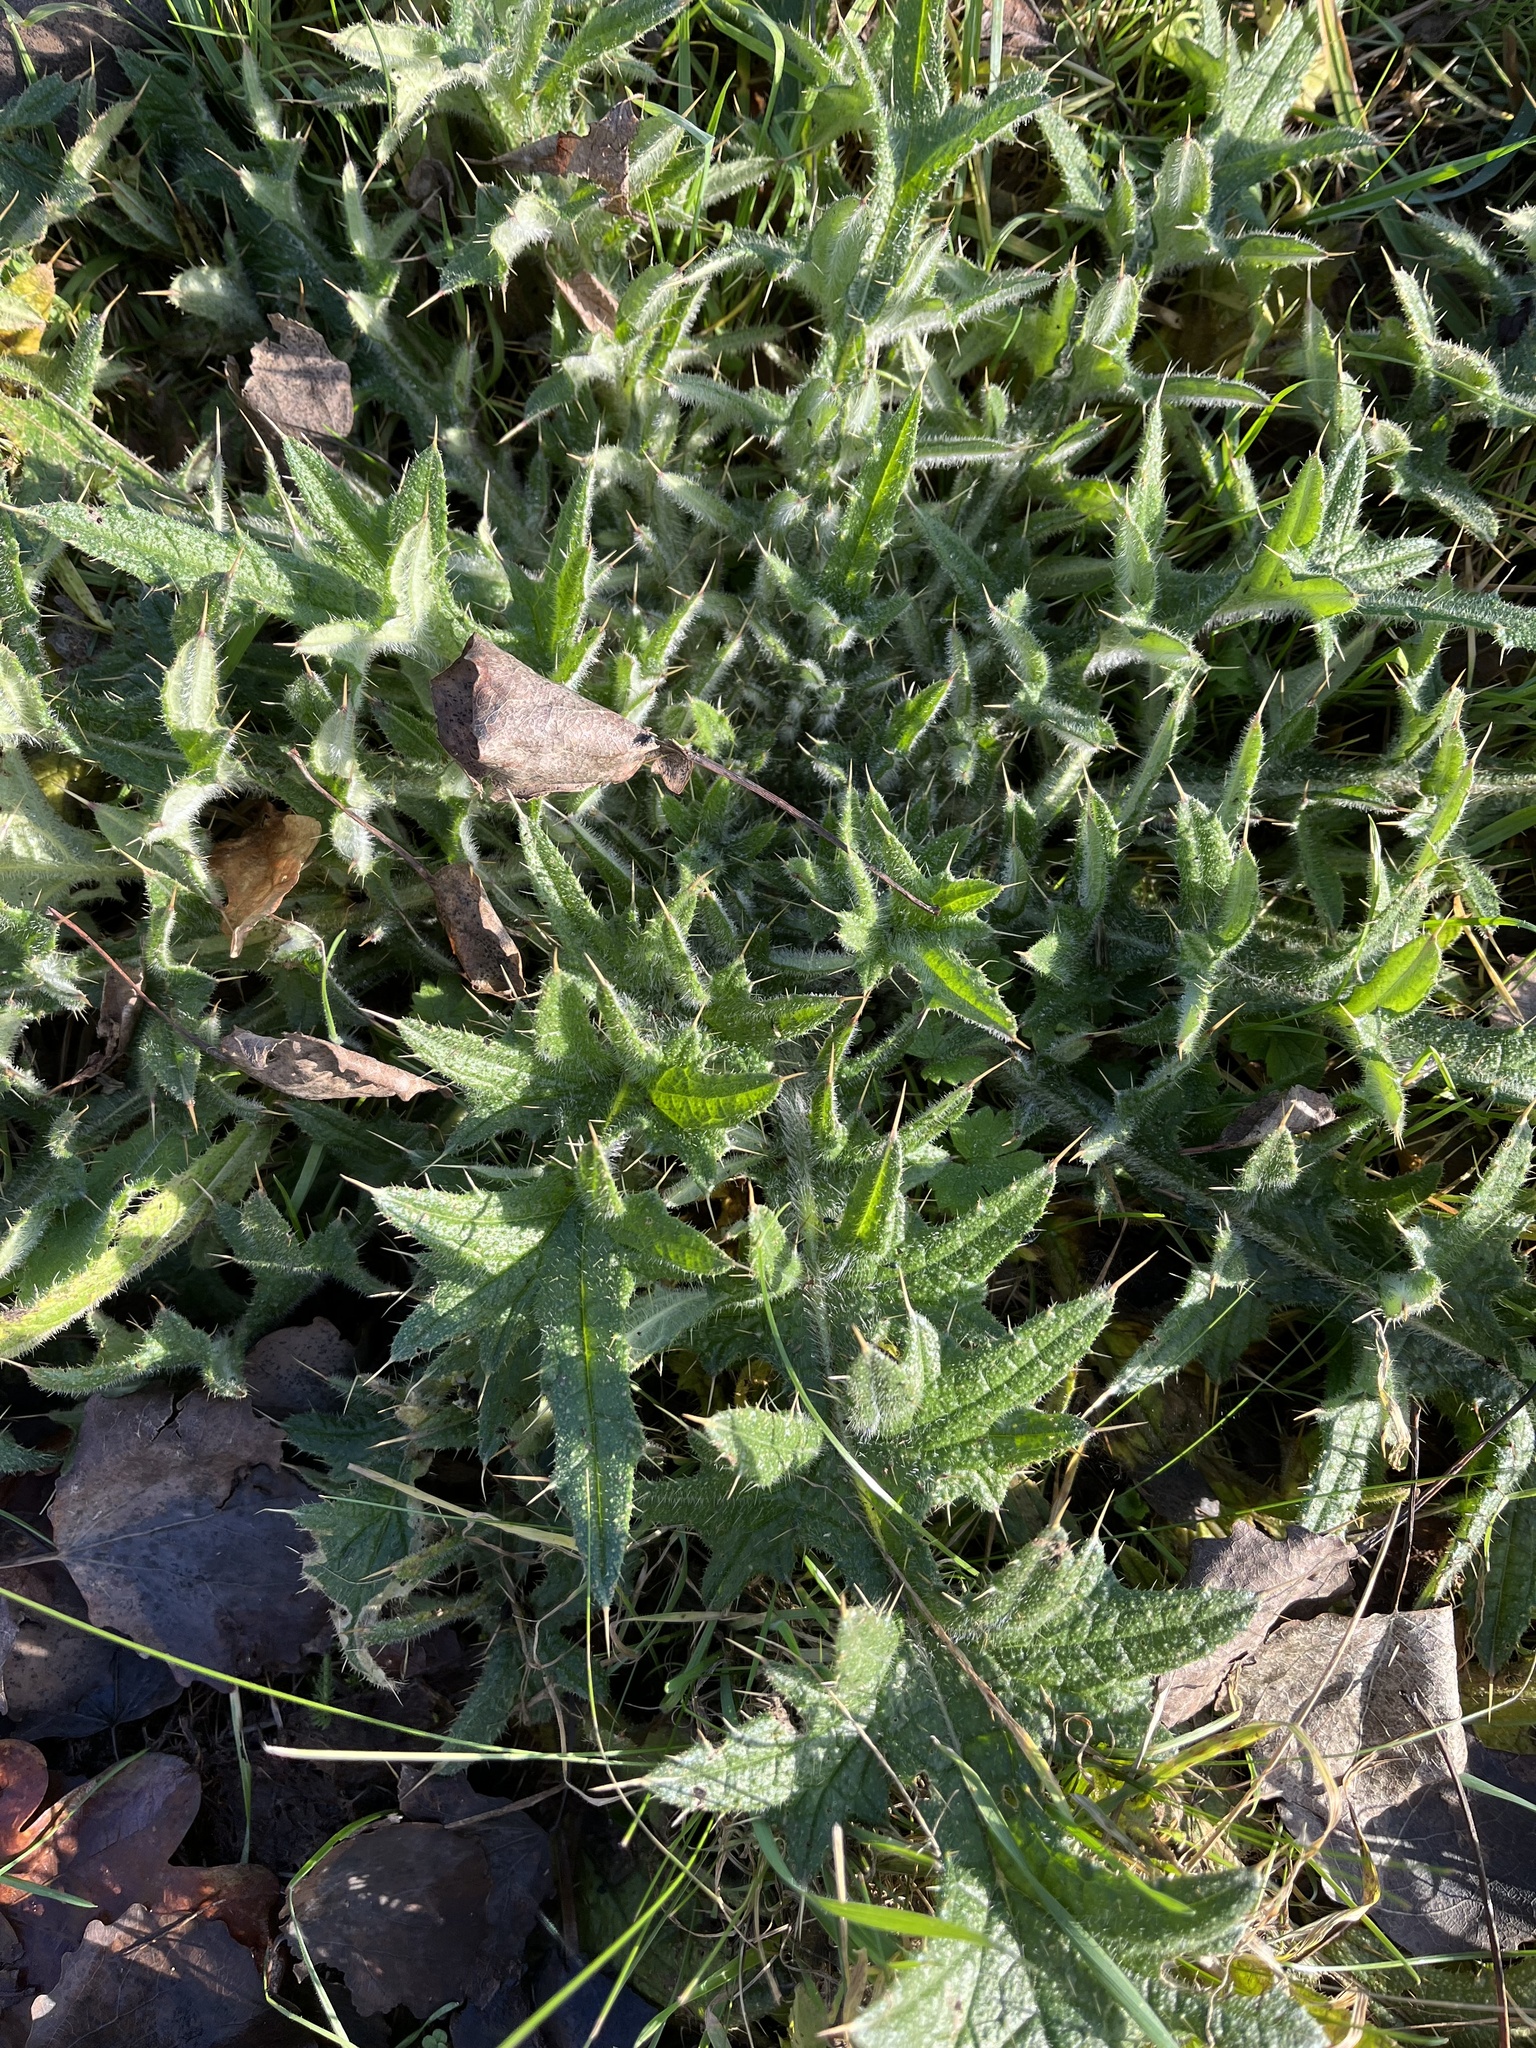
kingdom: Plantae
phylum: Tracheophyta
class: Magnoliopsida
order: Asterales
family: Asteraceae
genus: Cirsium
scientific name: Cirsium vulgare
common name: Bull thistle
